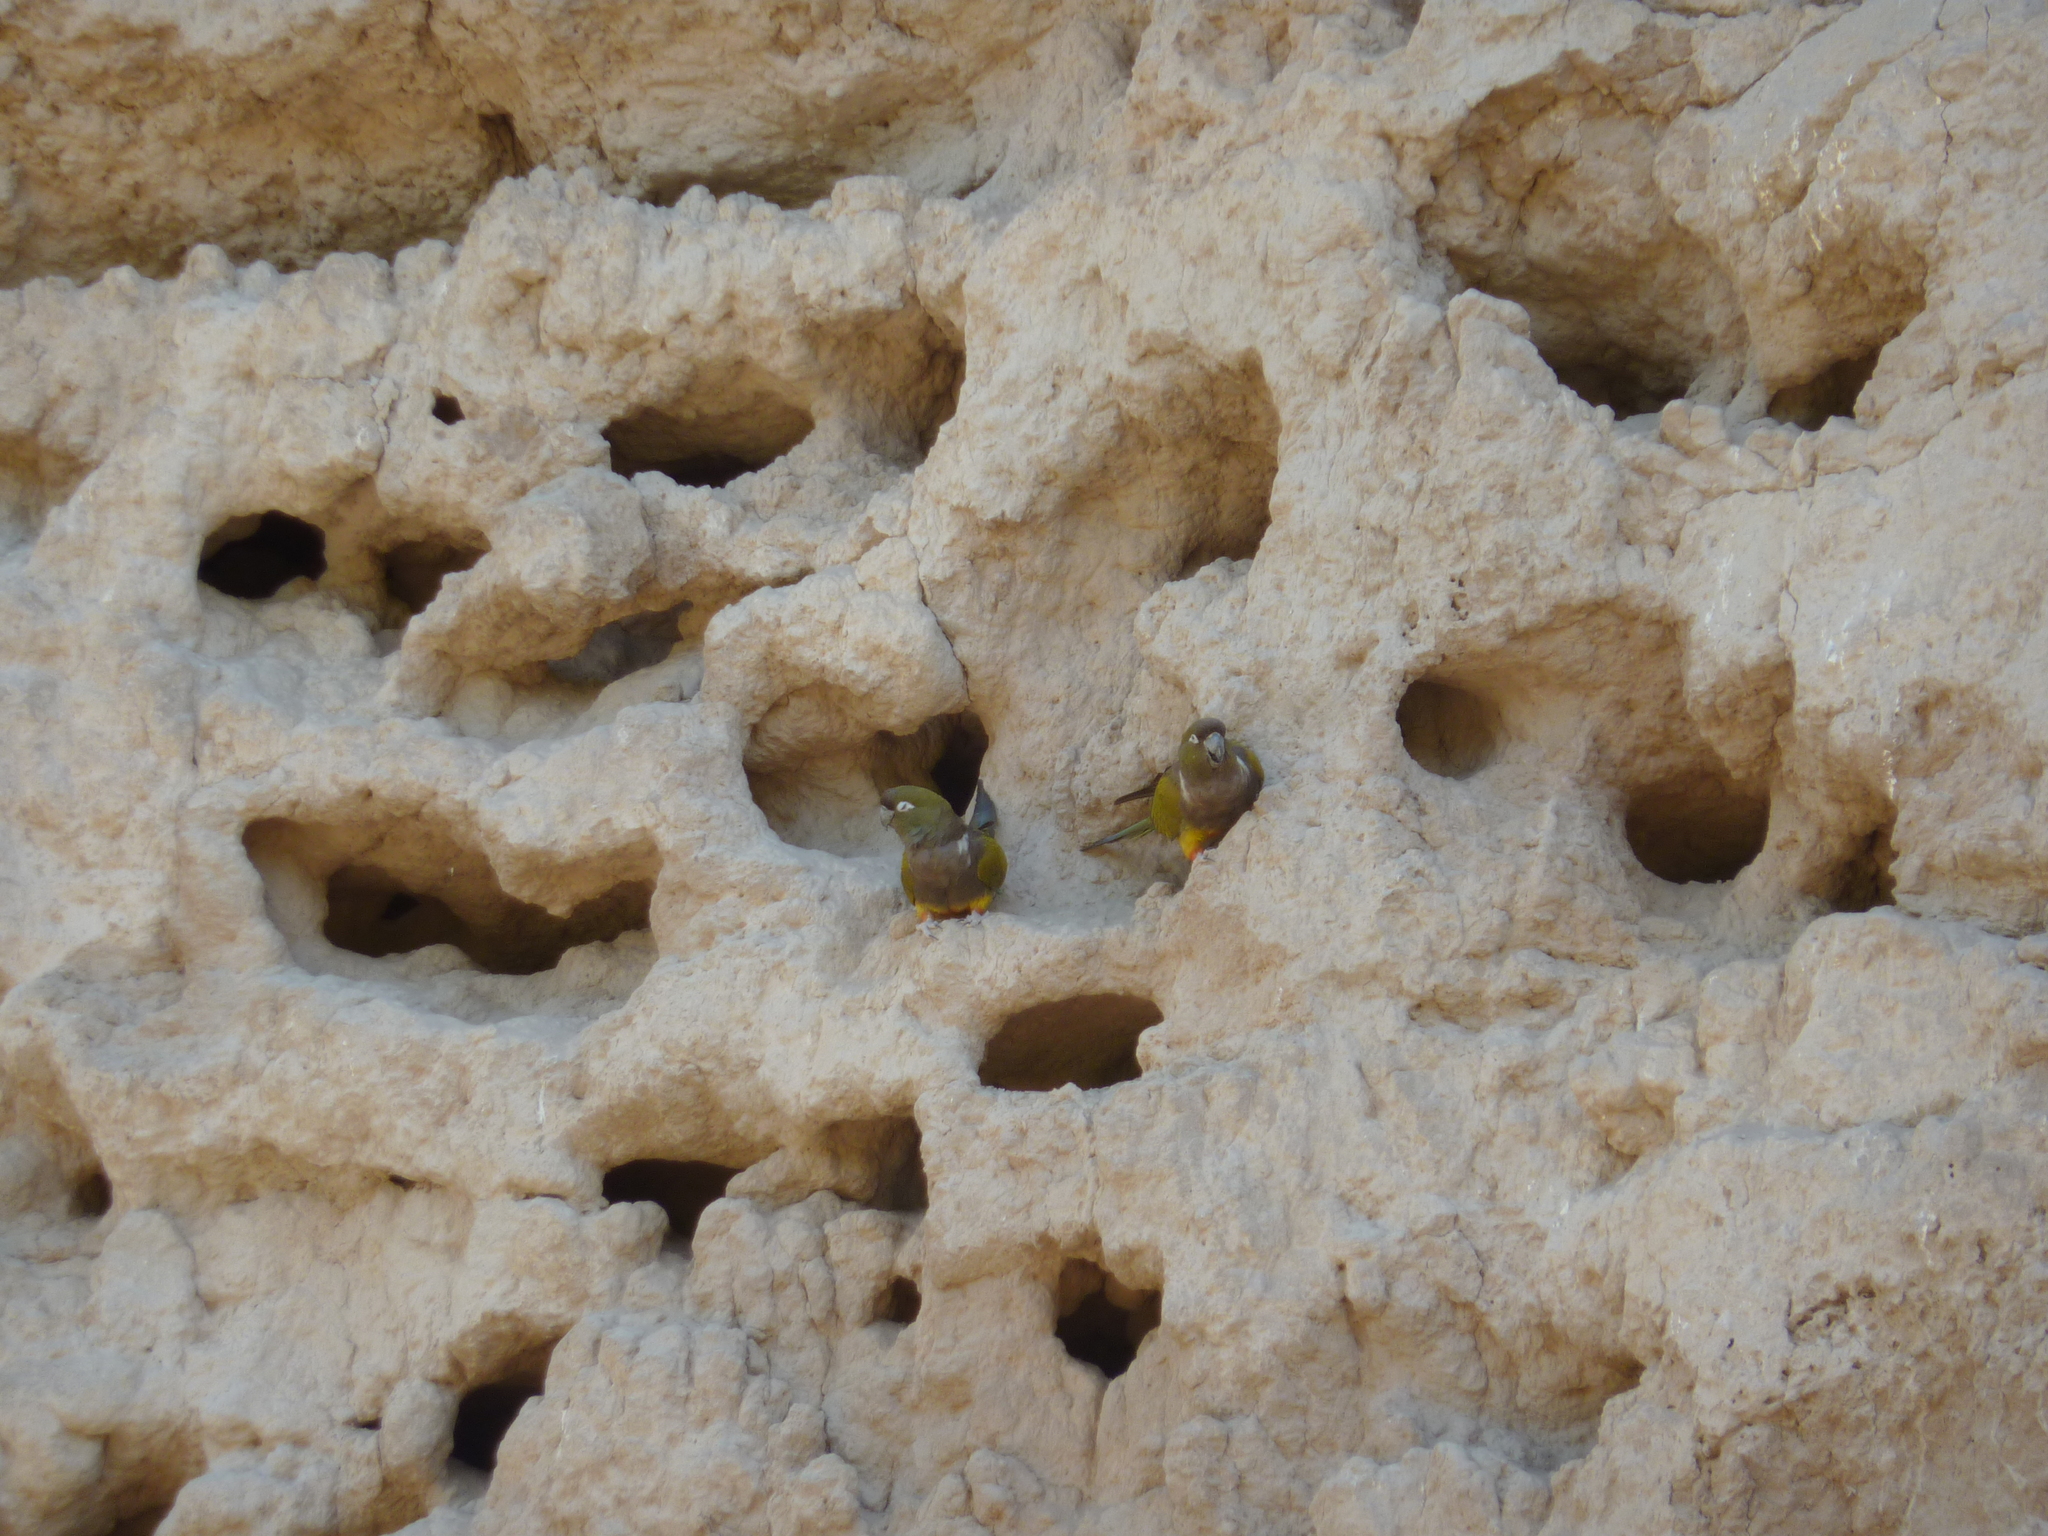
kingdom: Animalia
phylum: Chordata
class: Aves
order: Psittaciformes
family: Psittacidae
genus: Cyanoliseus
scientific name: Cyanoliseus patagonus
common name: Burrowing parrot
